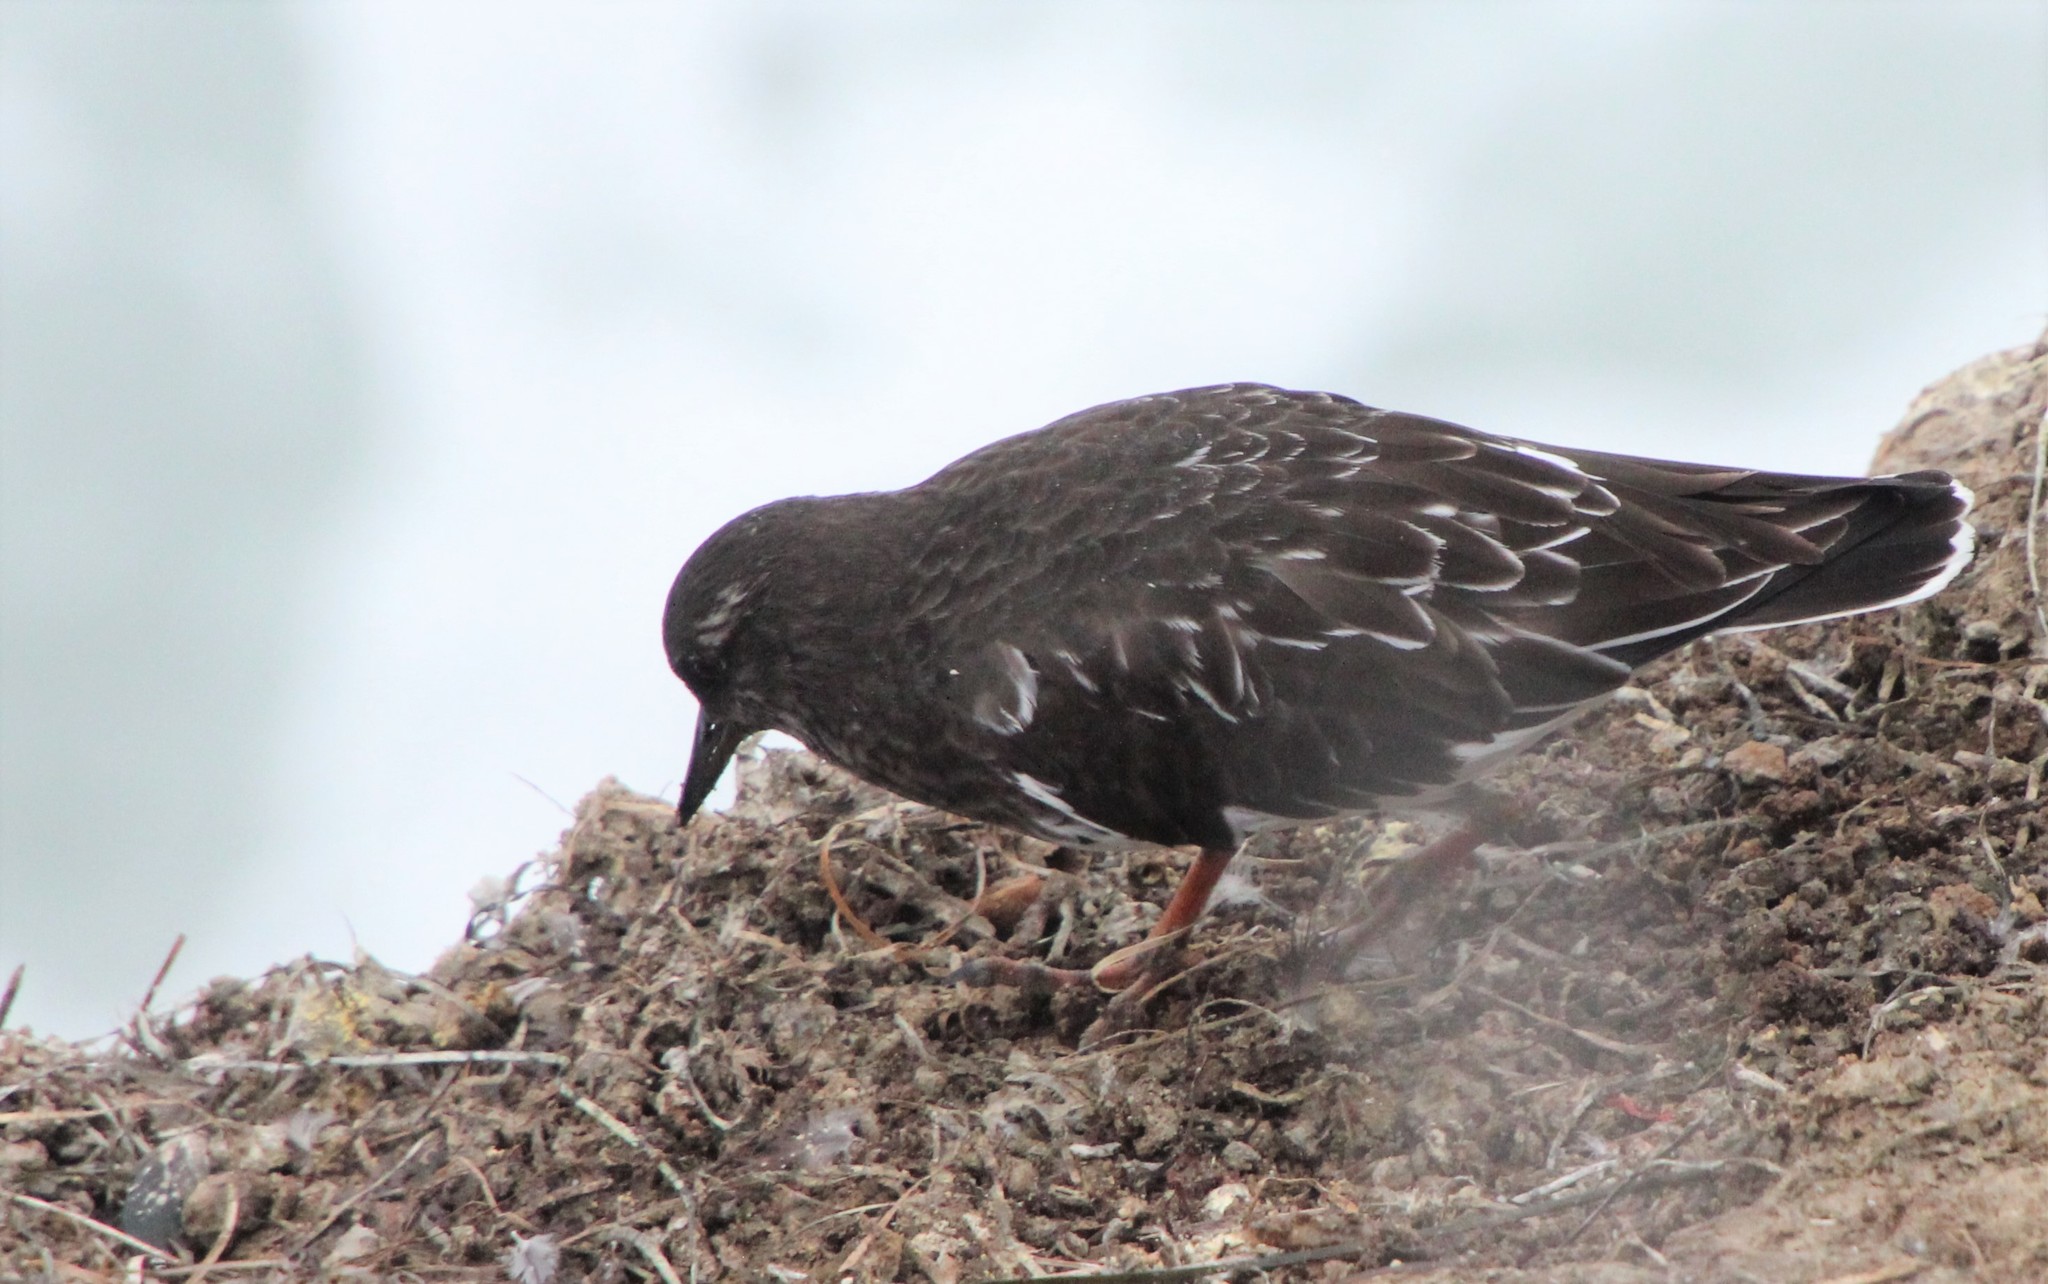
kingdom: Animalia
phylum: Chordata
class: Aves
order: Charadriiformes
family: Scolopacidae
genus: Arenaria
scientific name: Arenaria melanocephala
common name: Black turnstone
